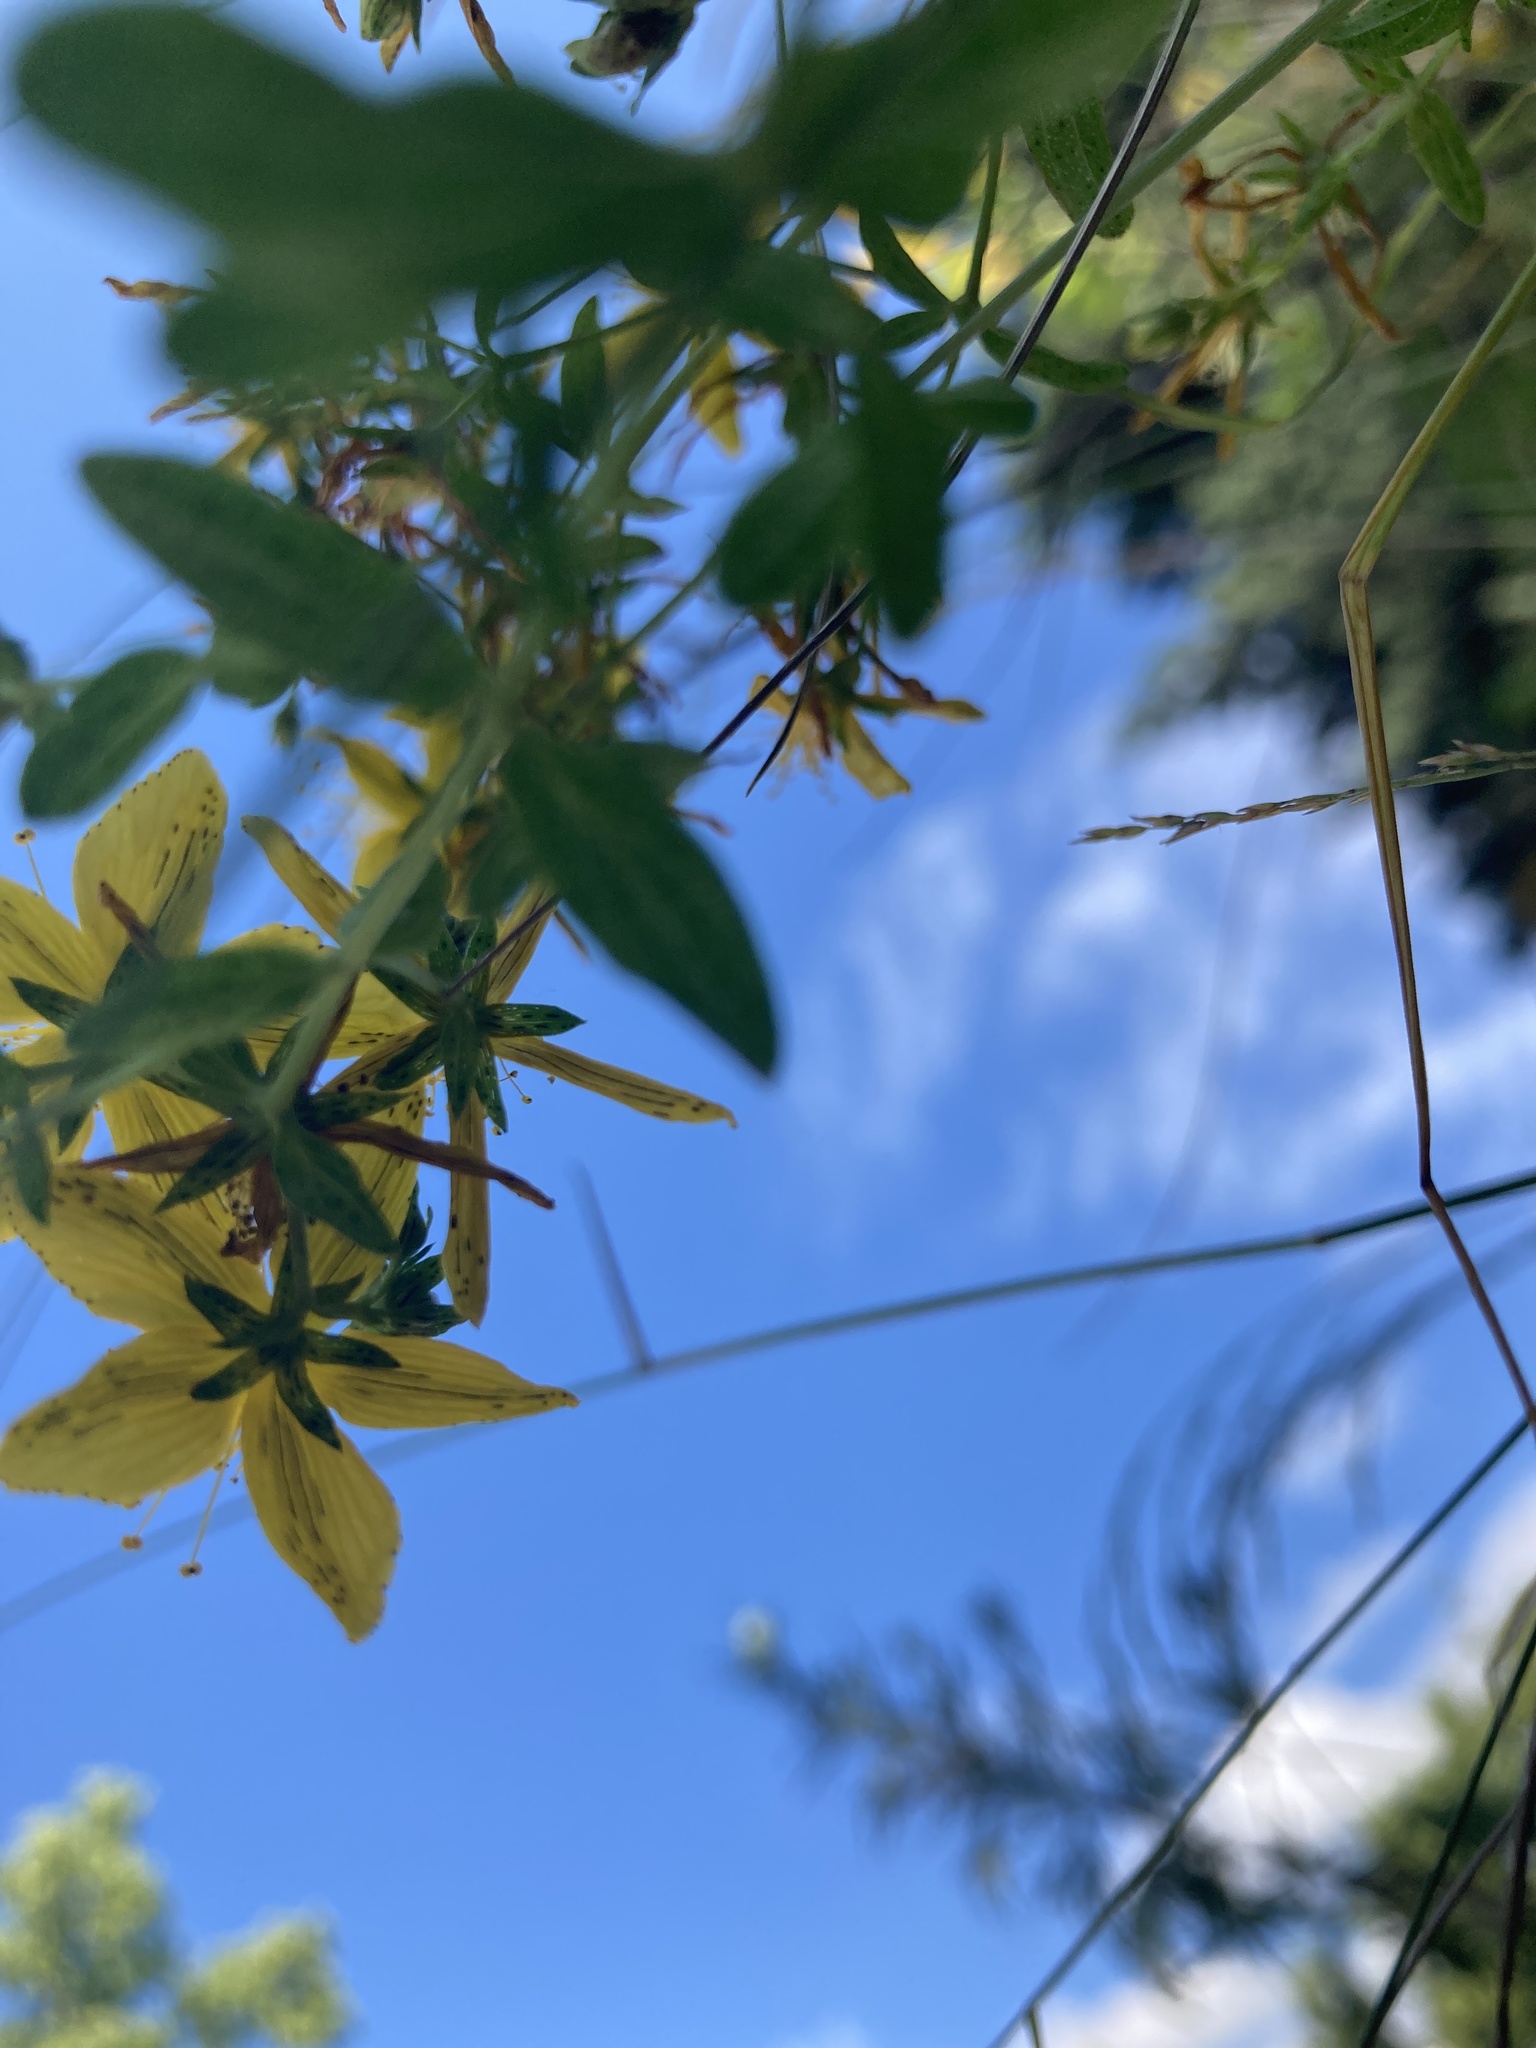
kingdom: Plantae
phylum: Tracheophyta
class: Magnoliopsida
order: Malpighiales
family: Hypericaceae
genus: Hypericum
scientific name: Hypericum perforatum
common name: Common st. johnswort
